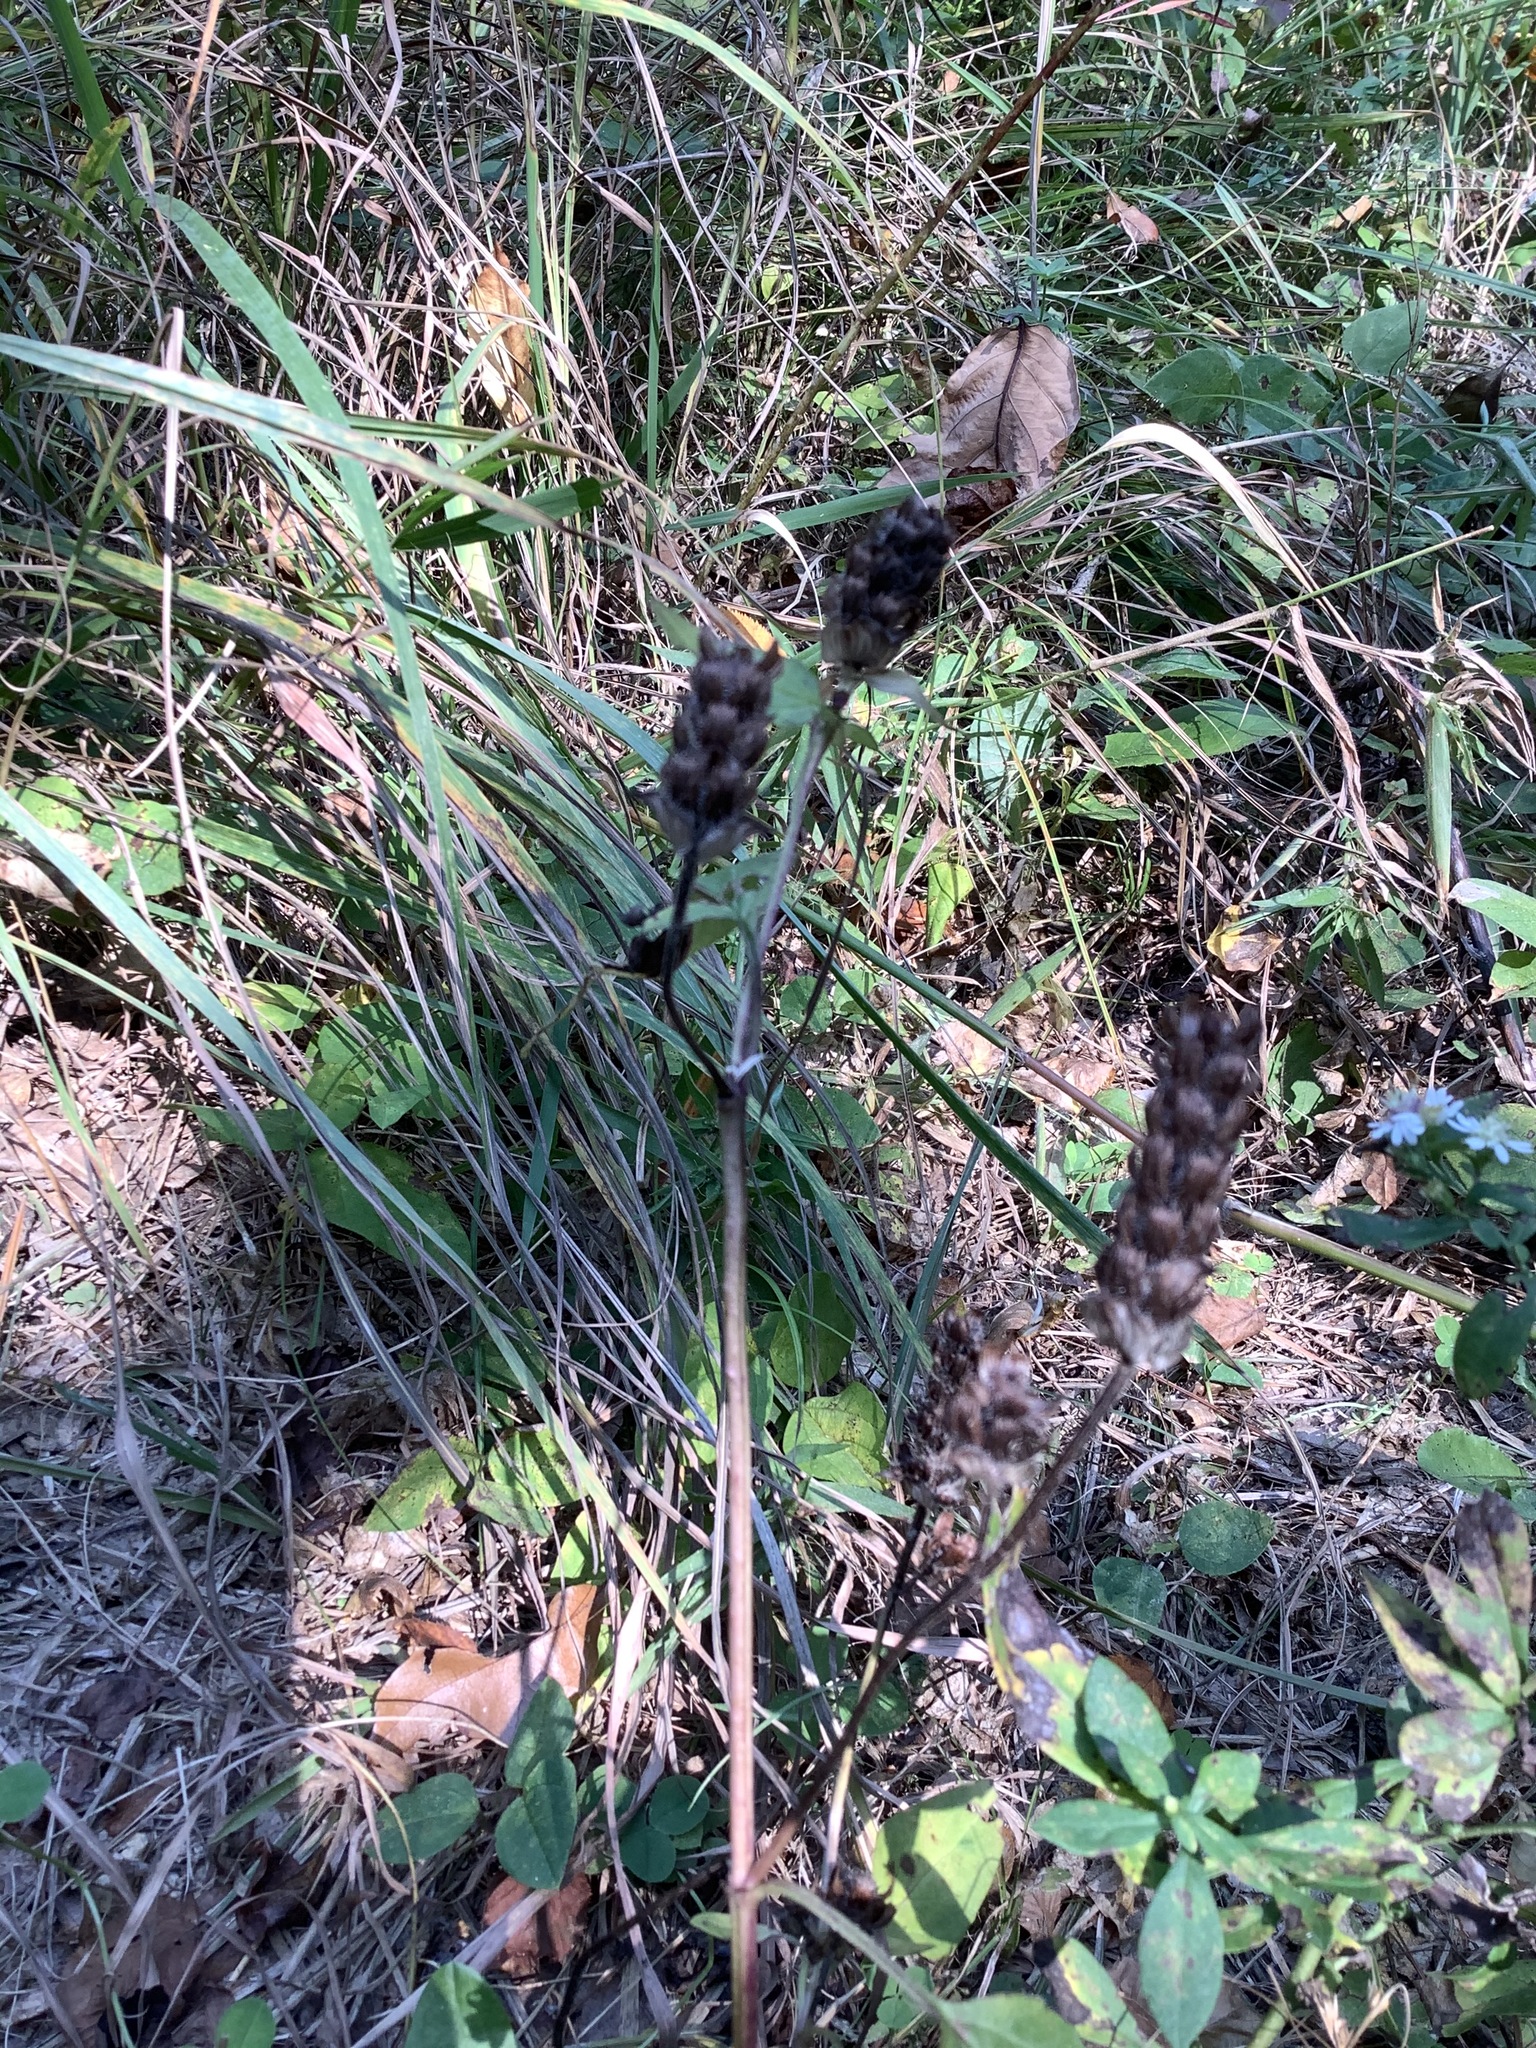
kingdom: Plantae
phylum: Tracheophyta
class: Magnoliopsida
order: Lamiales
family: Lamiaceae
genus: Prunella
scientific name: Prunella vulgaris
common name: Heal-all
